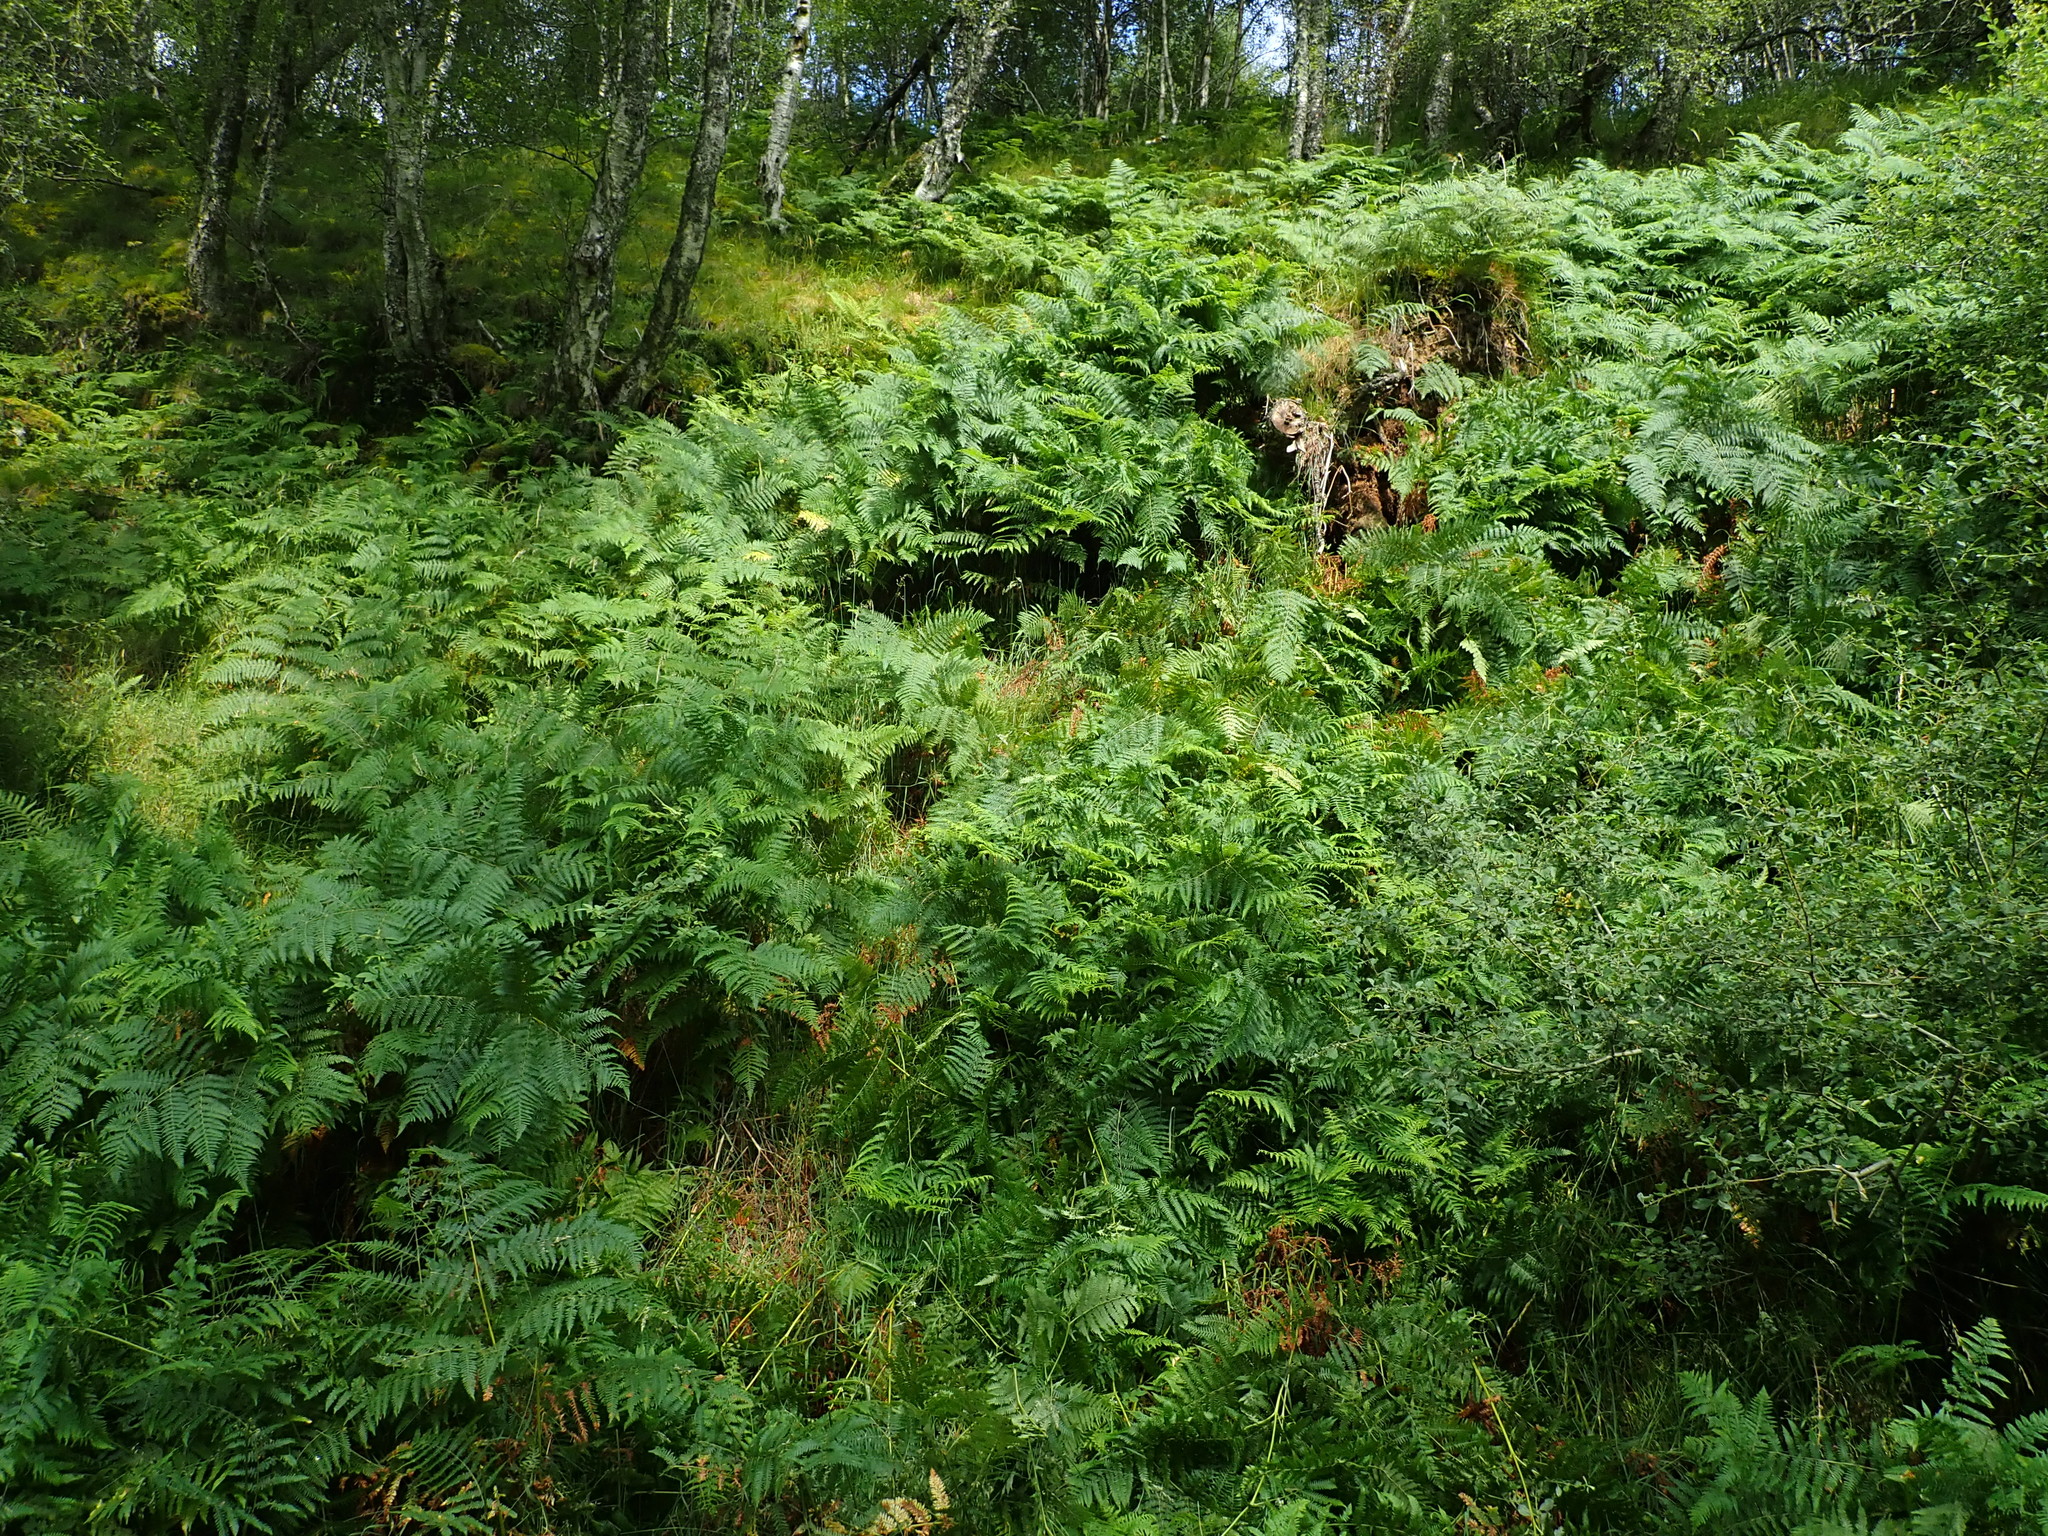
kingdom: Plantae
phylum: Tracheophyta
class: Polypodiopsida
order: Polypodiales
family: Dennstaedtiaceae
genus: Pteridium
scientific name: Pteridium aquilinum
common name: Bracken
